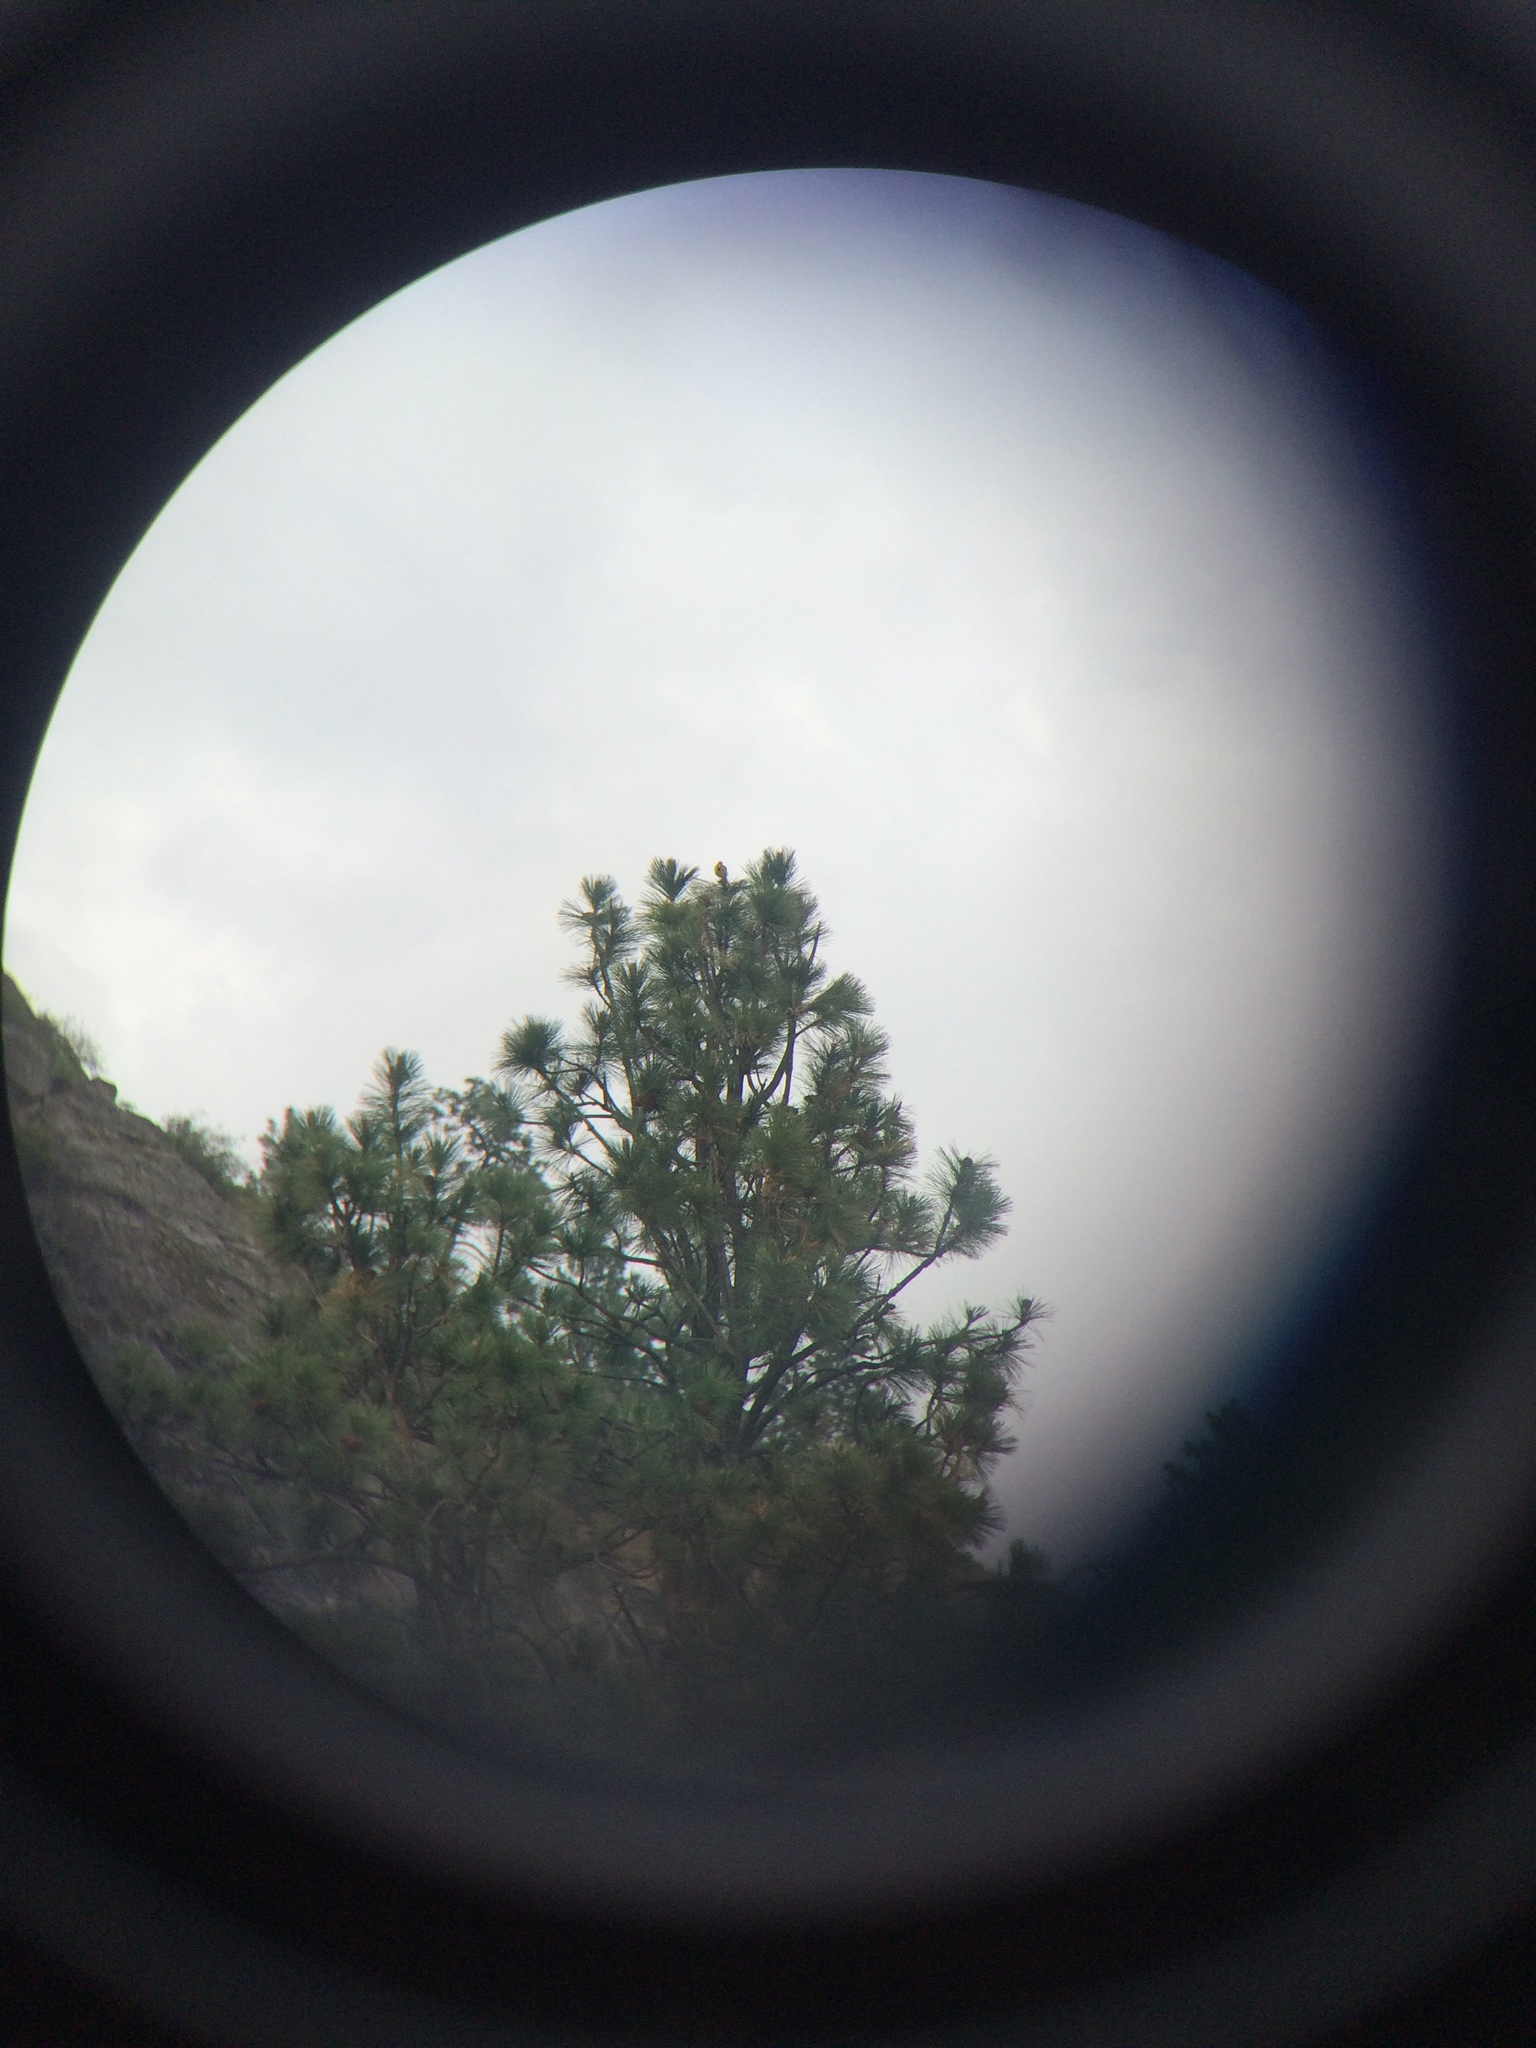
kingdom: Animalia
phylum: Chordata
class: Aves
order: Passeriformes
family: Icteridae
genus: Sturnella
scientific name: Sturnella neglecta
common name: Western meadowlark
